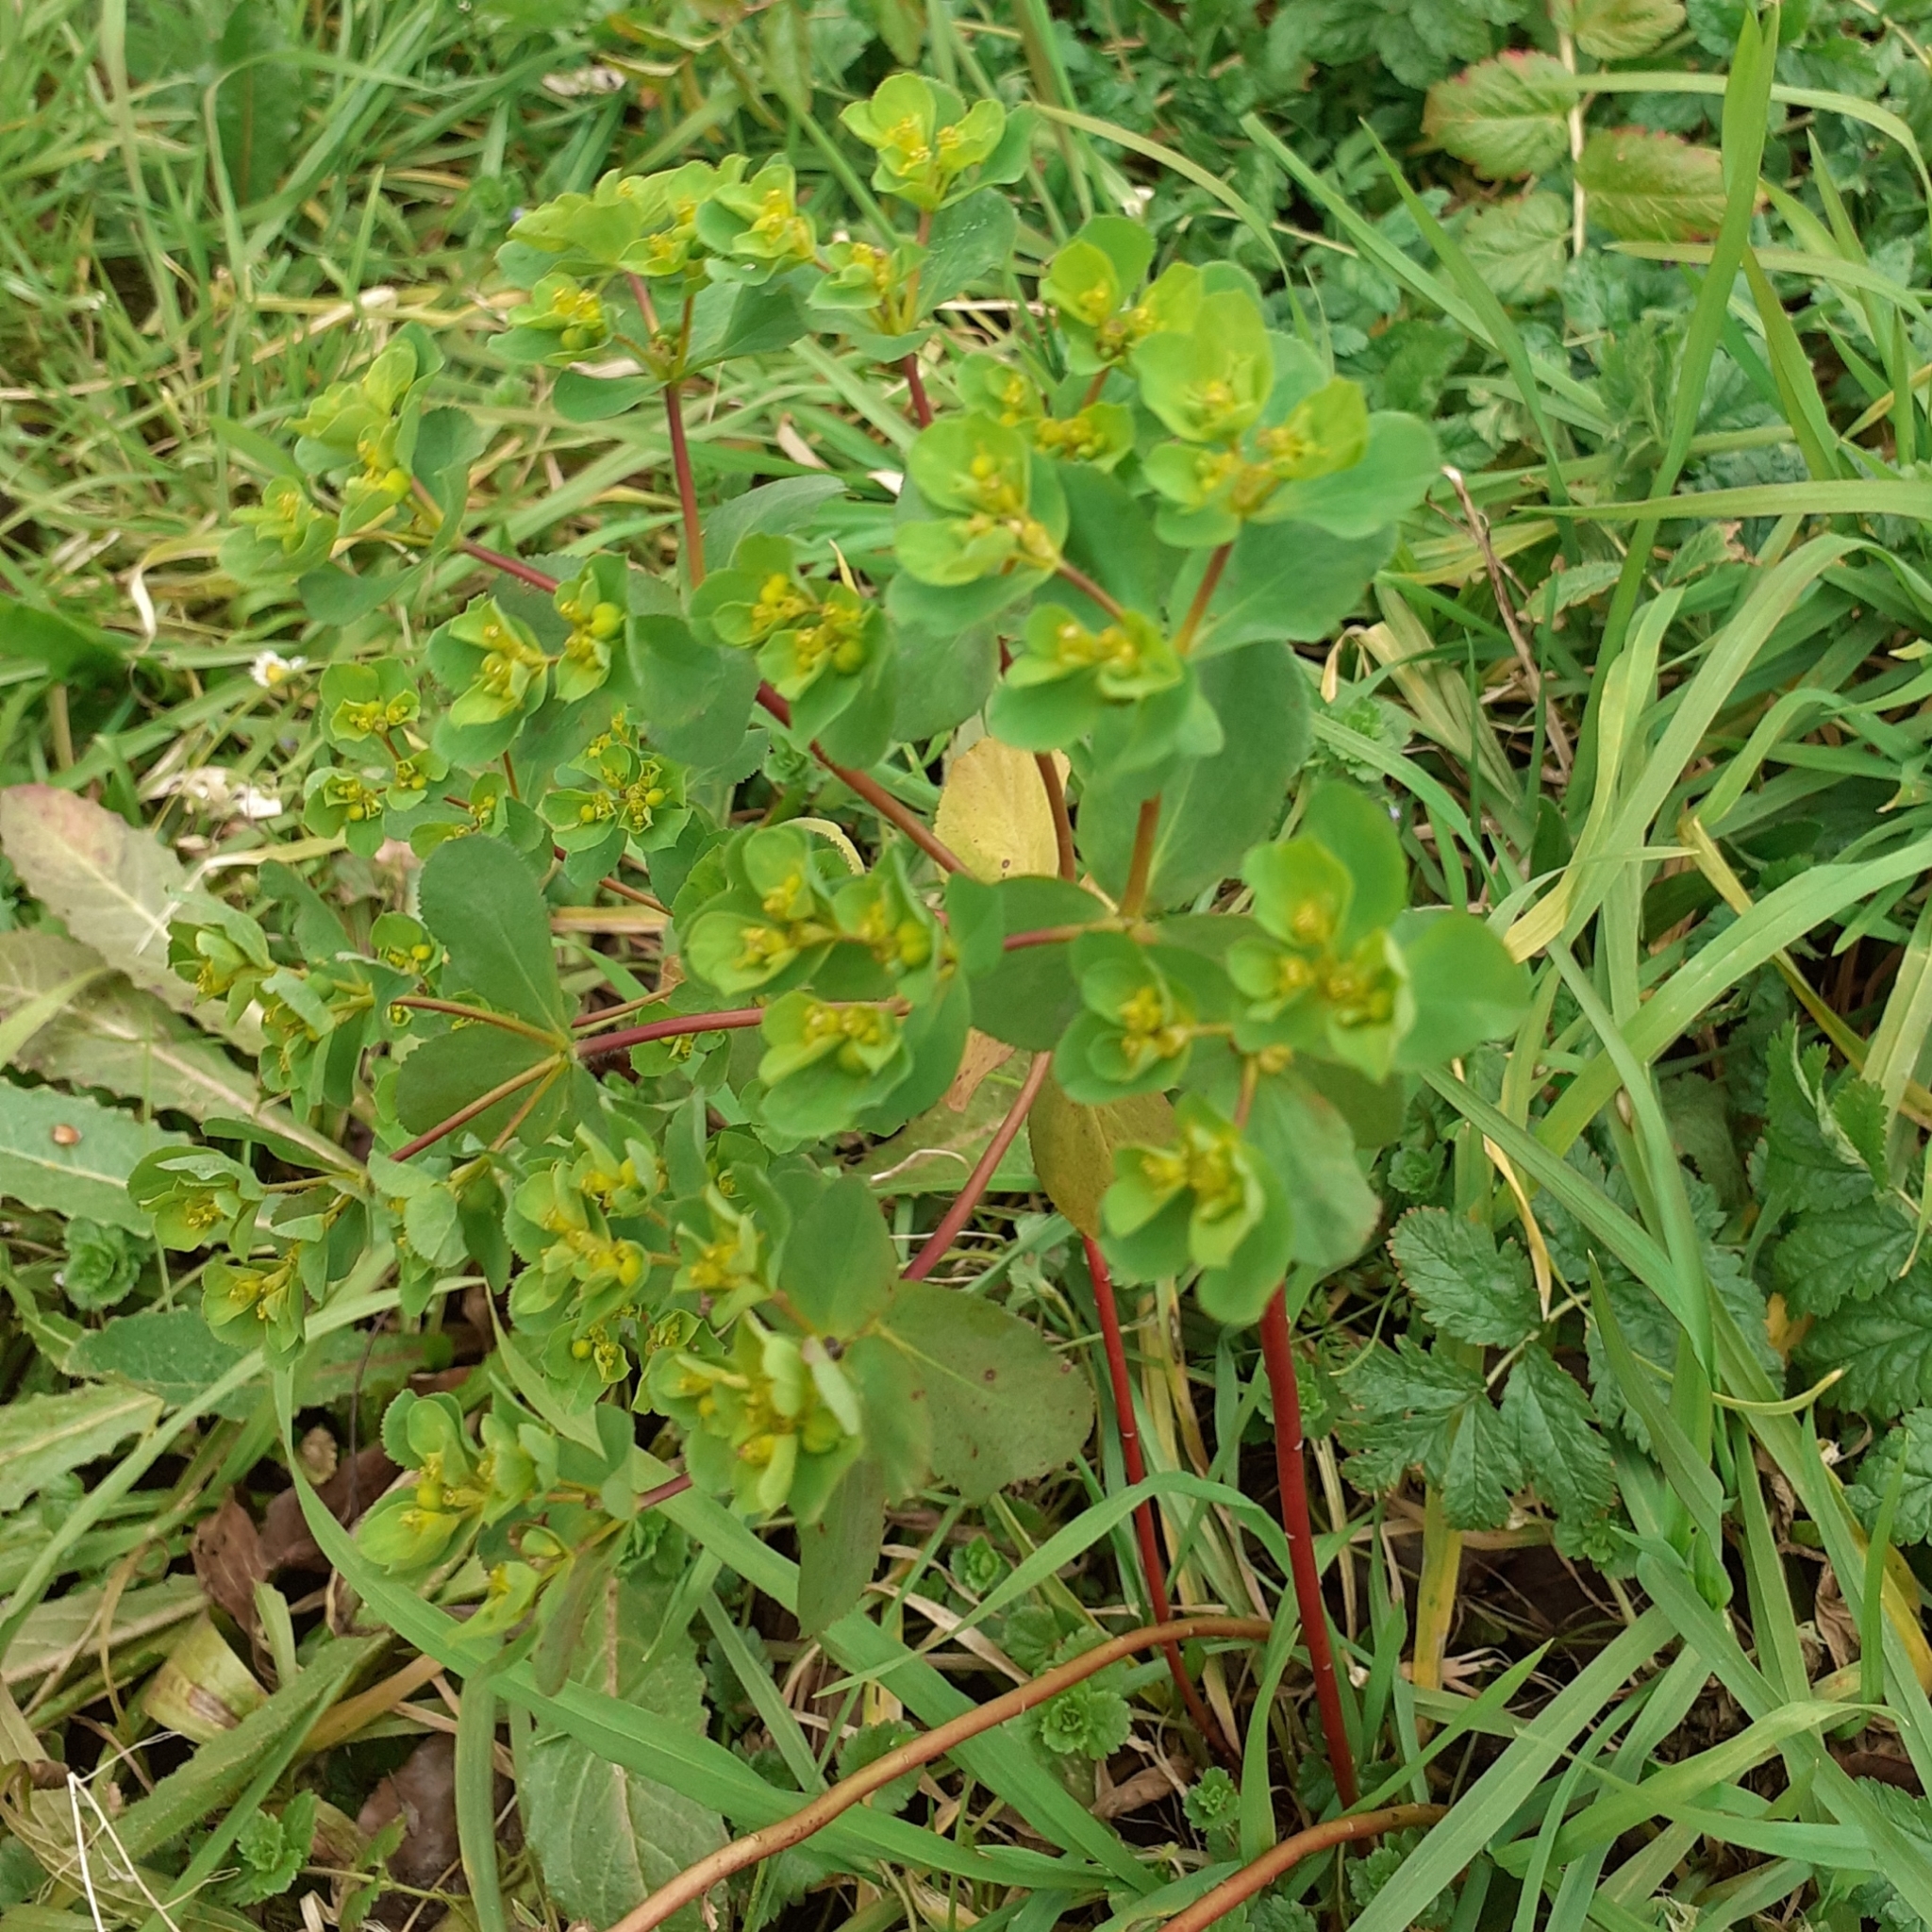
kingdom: Plantae
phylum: Tracheophyta
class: Magnoliopsida
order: Malpighiales
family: Euphorbiaceae
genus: Euphorbia
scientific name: Euphorbia helioscopia
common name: Sun spurge
